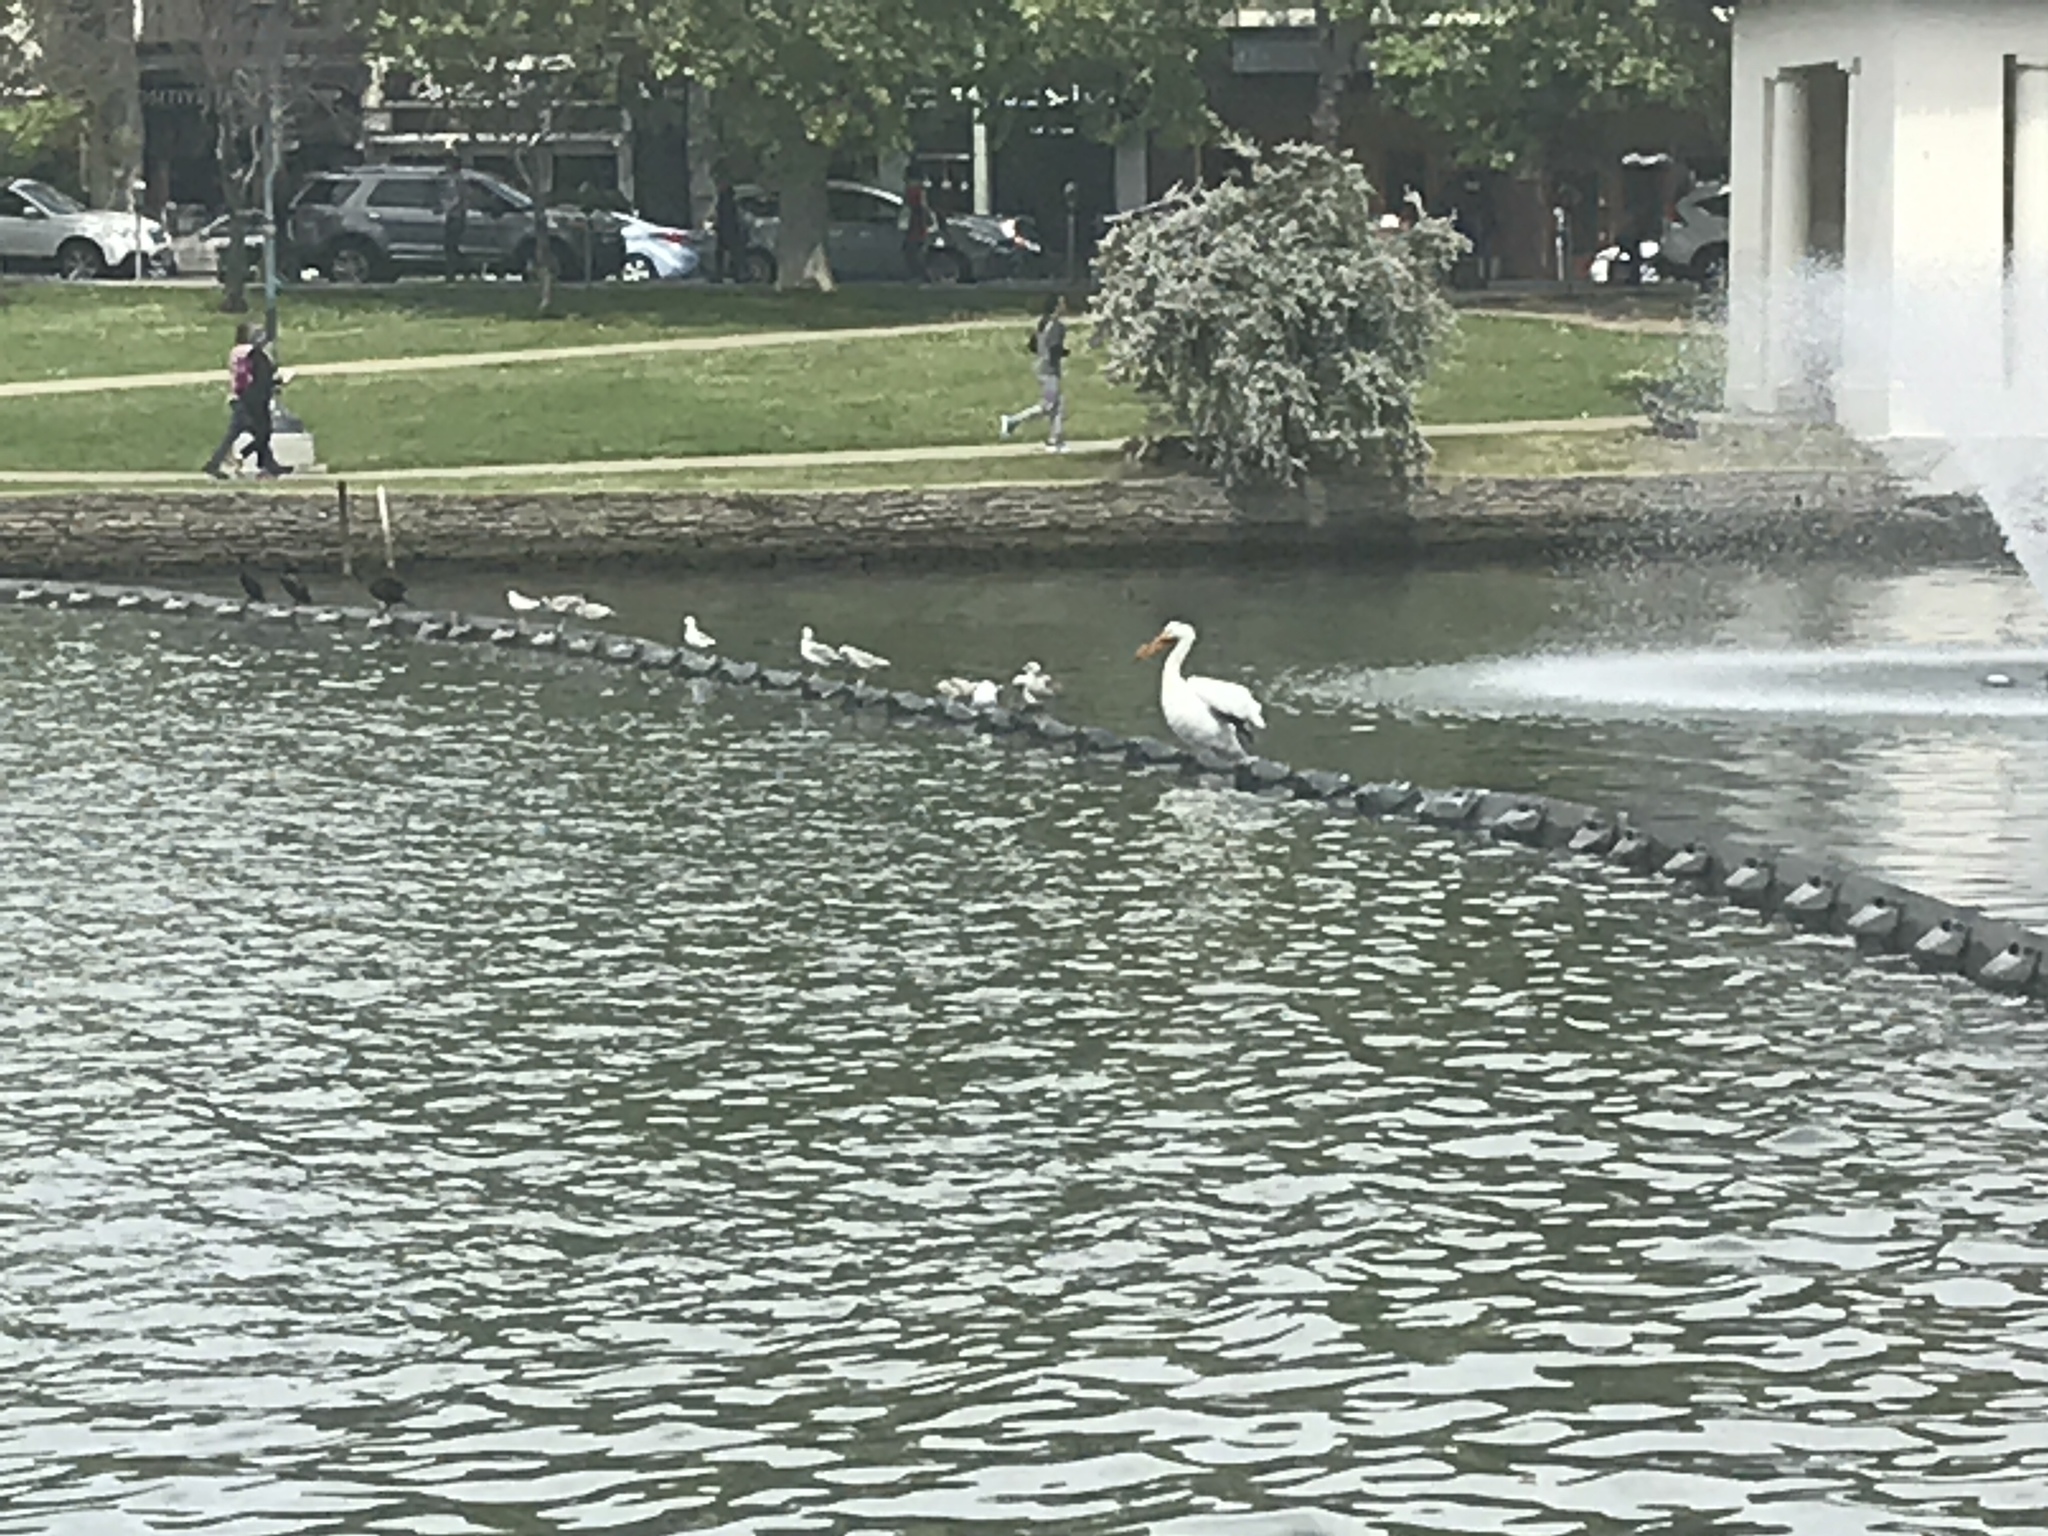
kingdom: Animalia
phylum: Chordata
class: Aves
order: Pelecaniformes
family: Pelecanidae
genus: Pelecanus
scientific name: Pelecanus erythrorhynchos
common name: American white pelican
